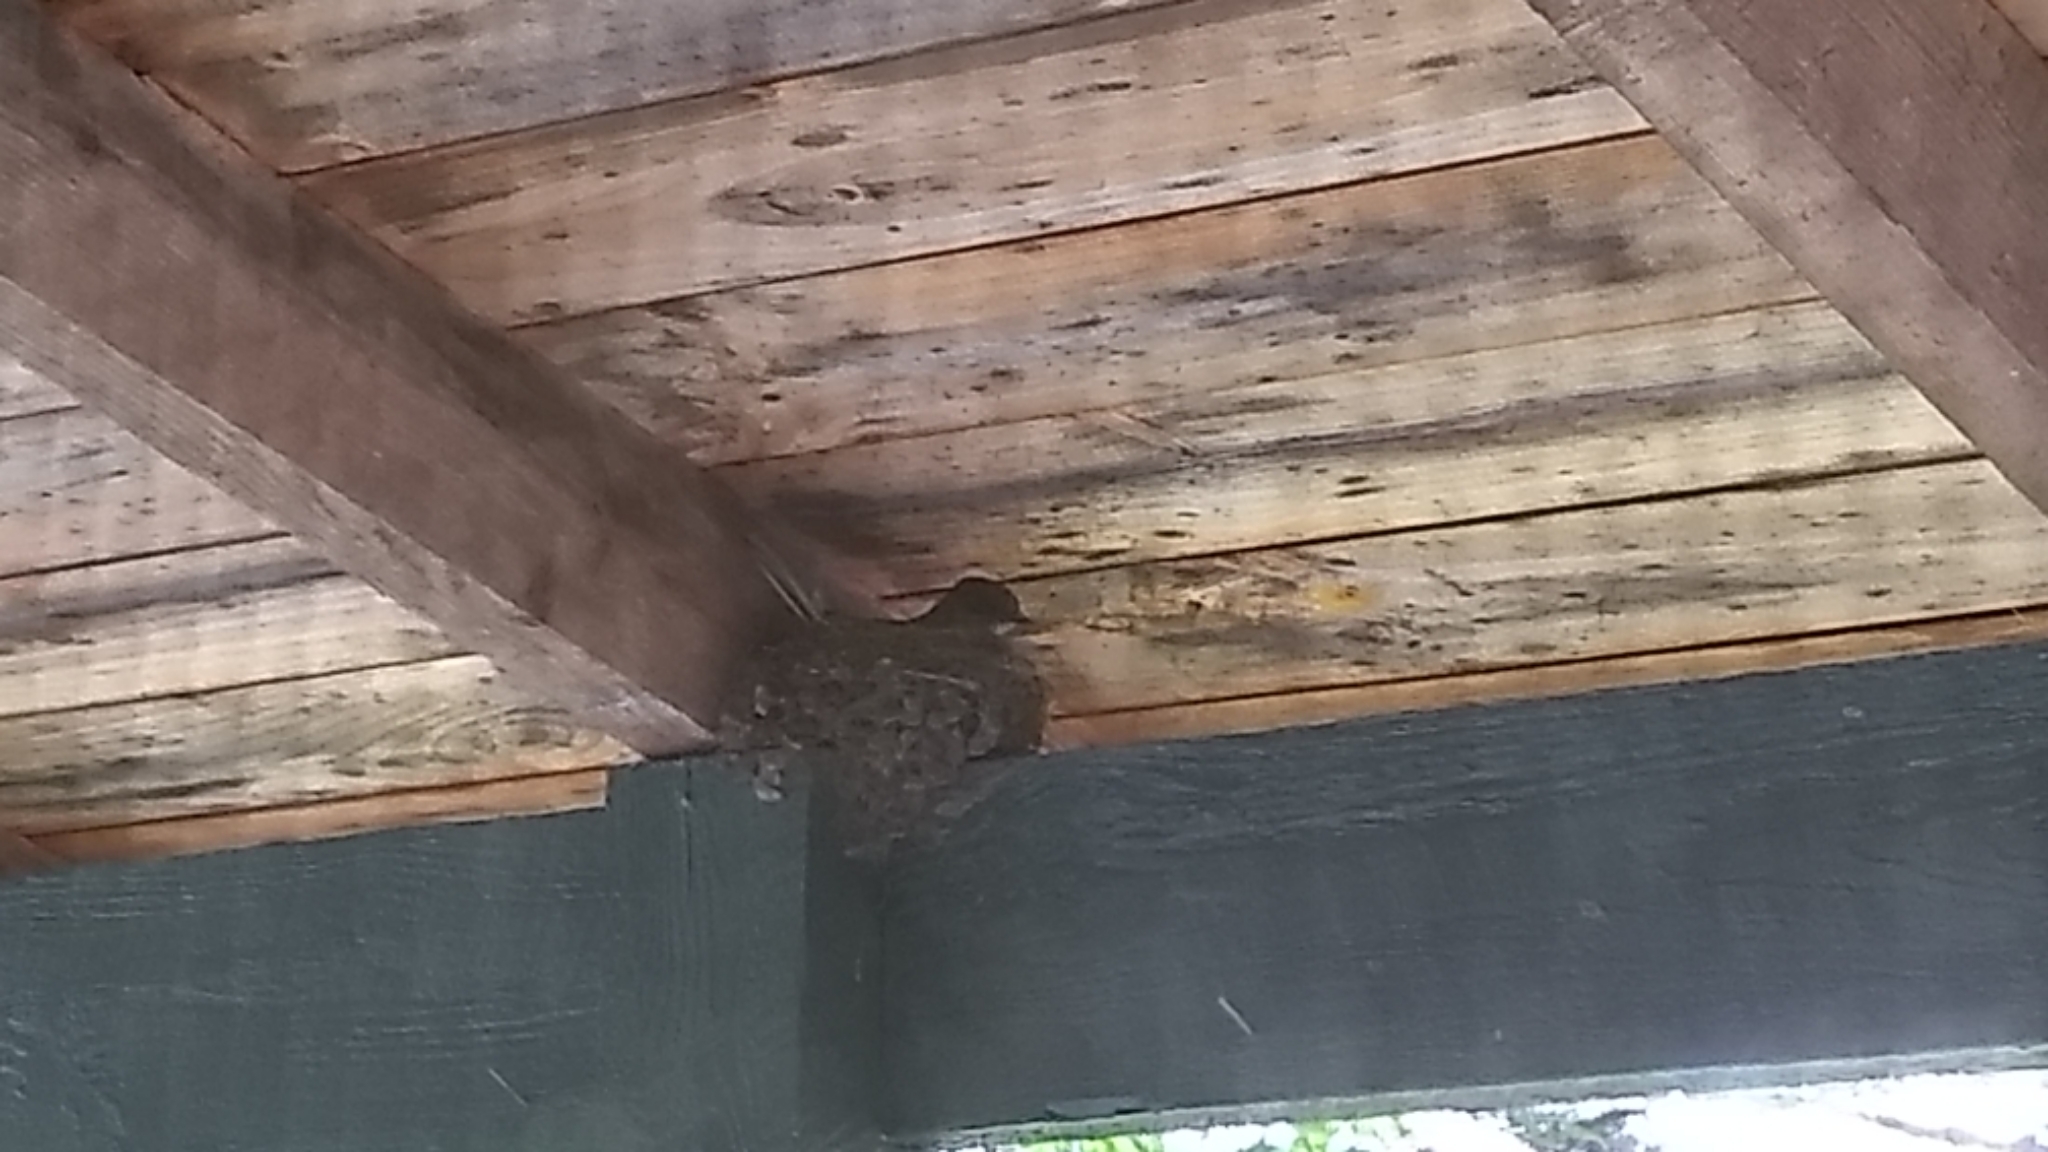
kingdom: Animalia
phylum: Chordata
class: Aves
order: Passeriformes
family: Tyrannidae
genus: Sayornis
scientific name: Sayornis phoebe
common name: Eastern phoebe
